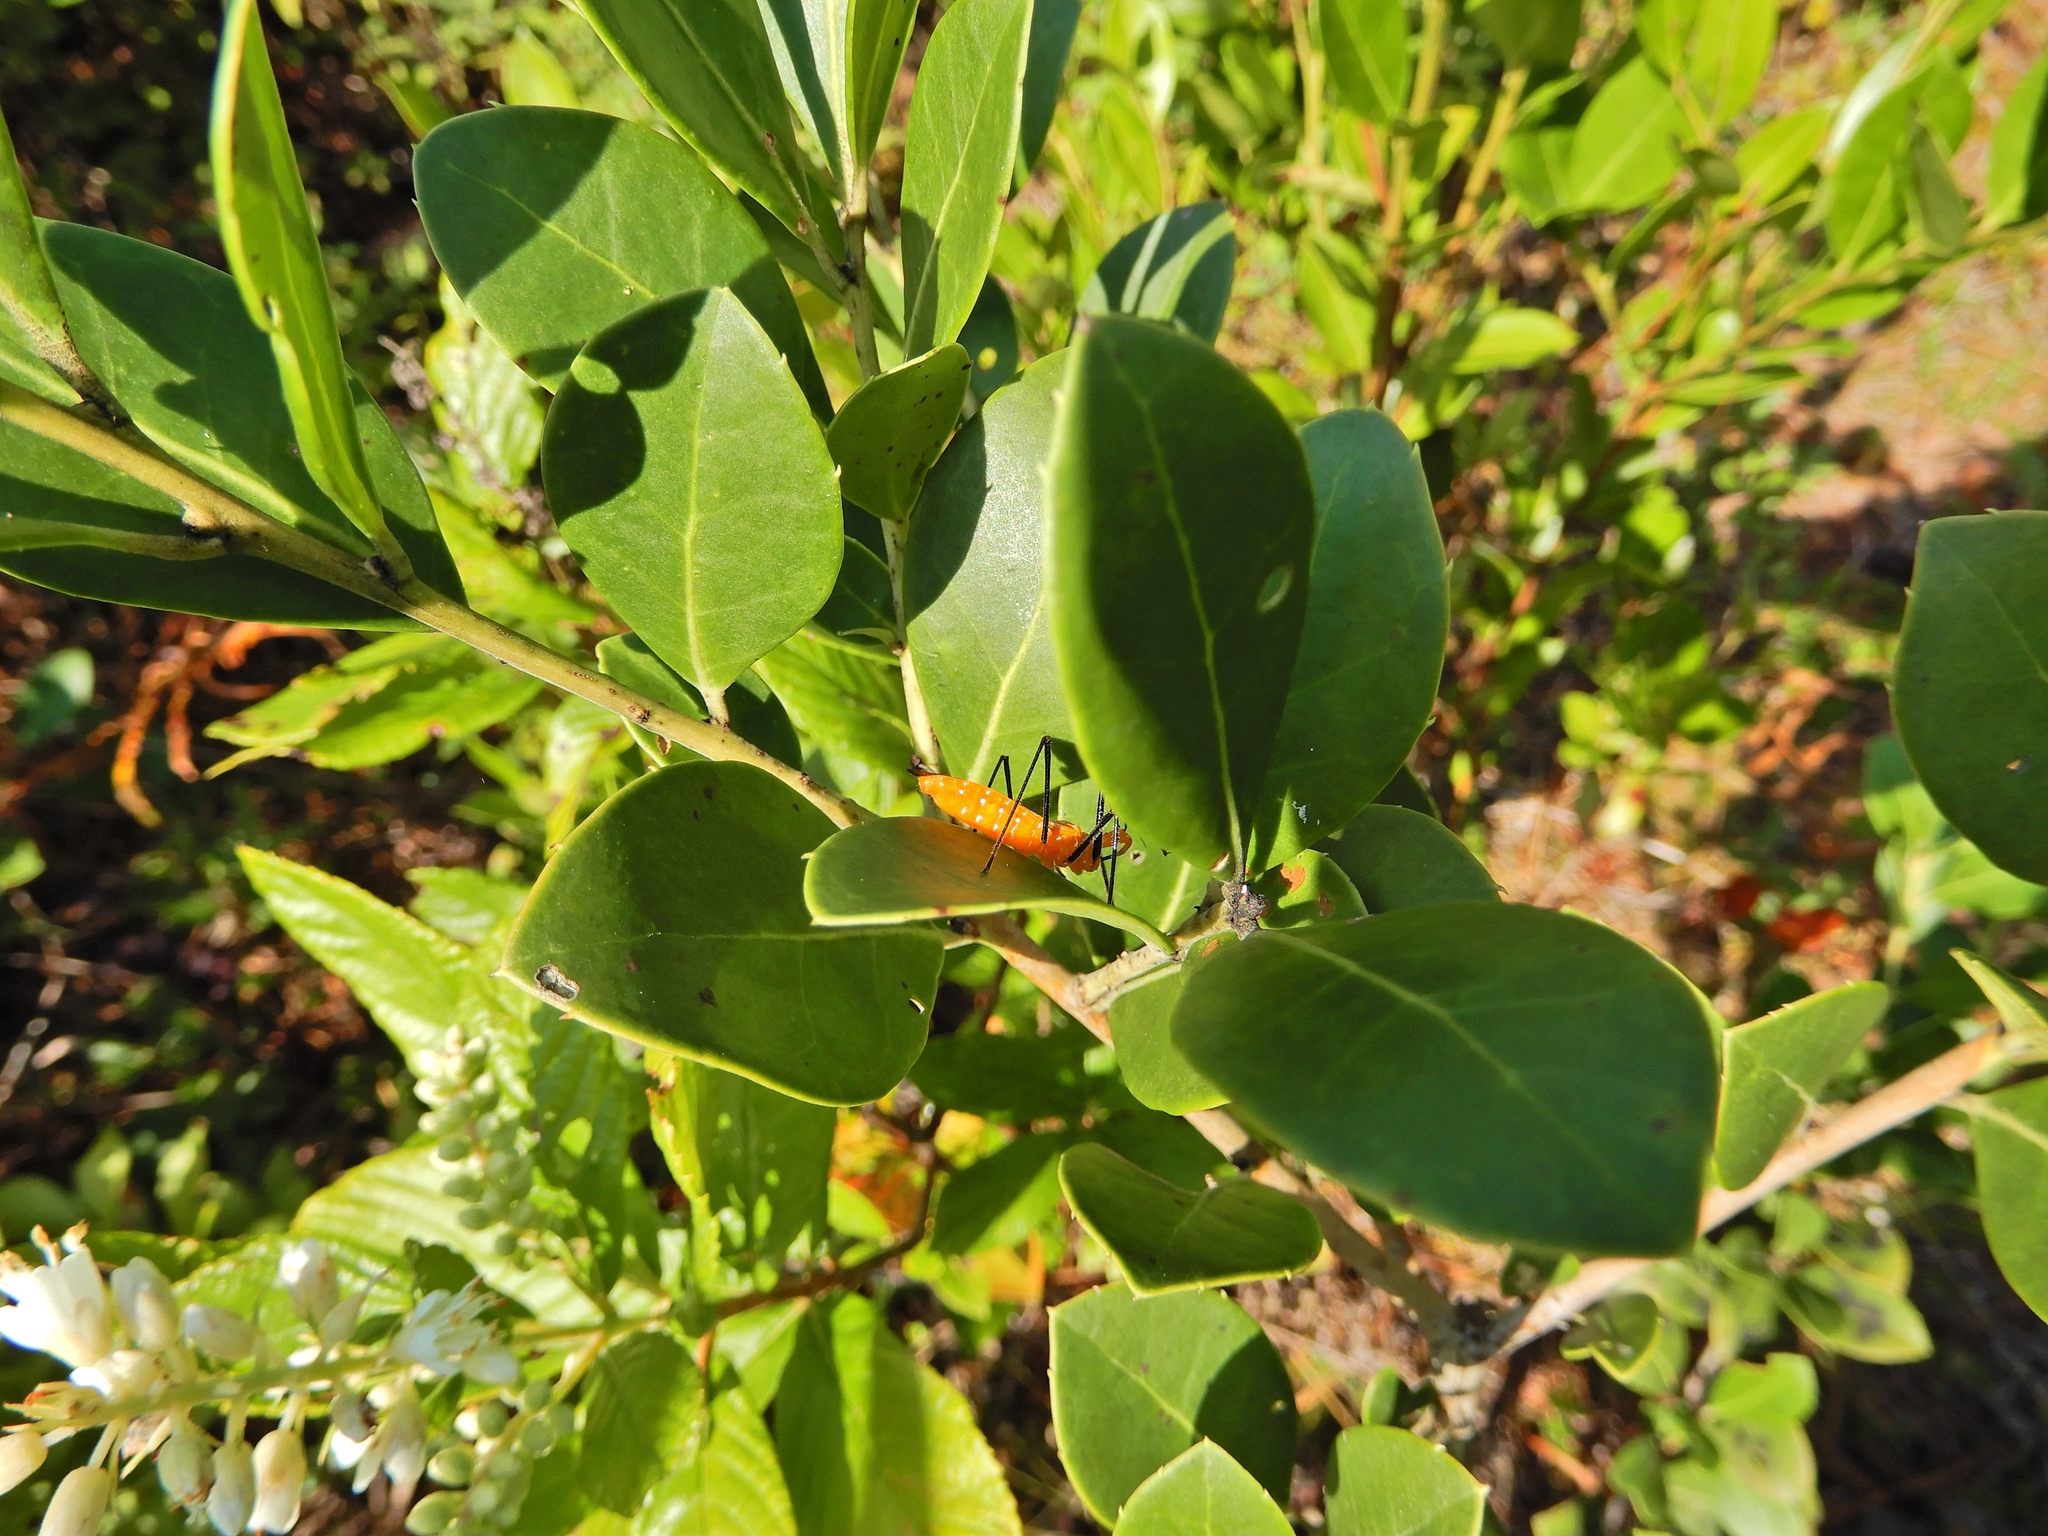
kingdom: Animalia
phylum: Arthropoda
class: Insecta
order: Hemiptera
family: Reduviidae
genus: Zelus
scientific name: Zelus longipes
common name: Milkweed assassin bug
